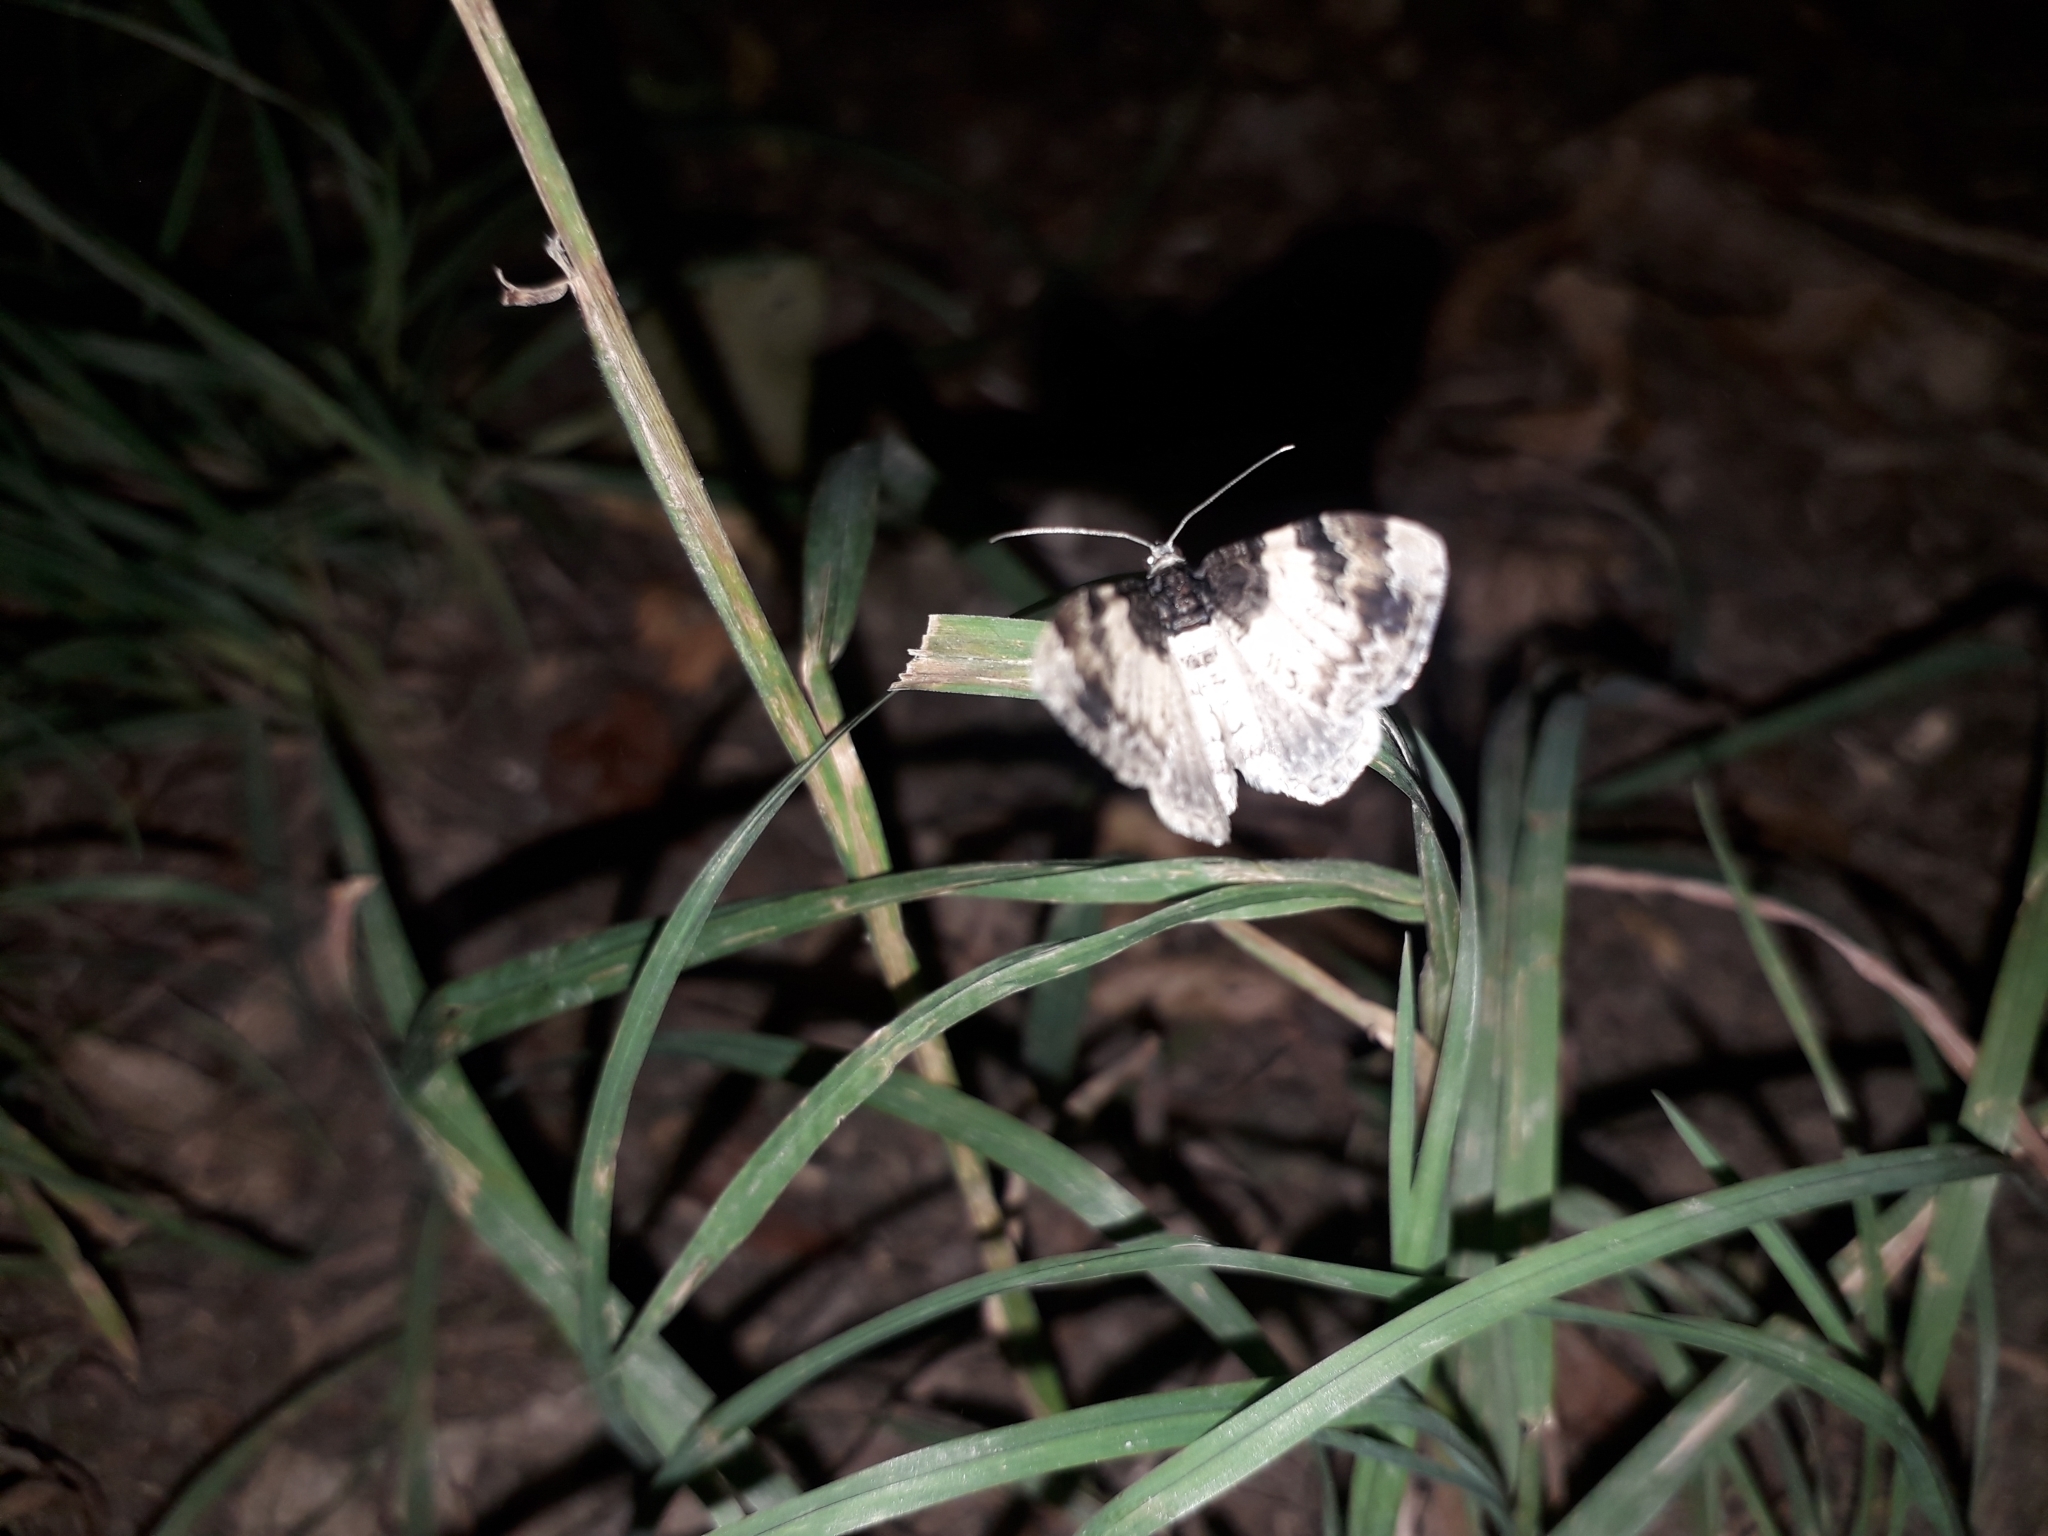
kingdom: Animalia
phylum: Arthropoda
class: Insecta
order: Lepidoptera
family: Geometridae
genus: Ligdia
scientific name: Ligdia adustata
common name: Scorched carpet
